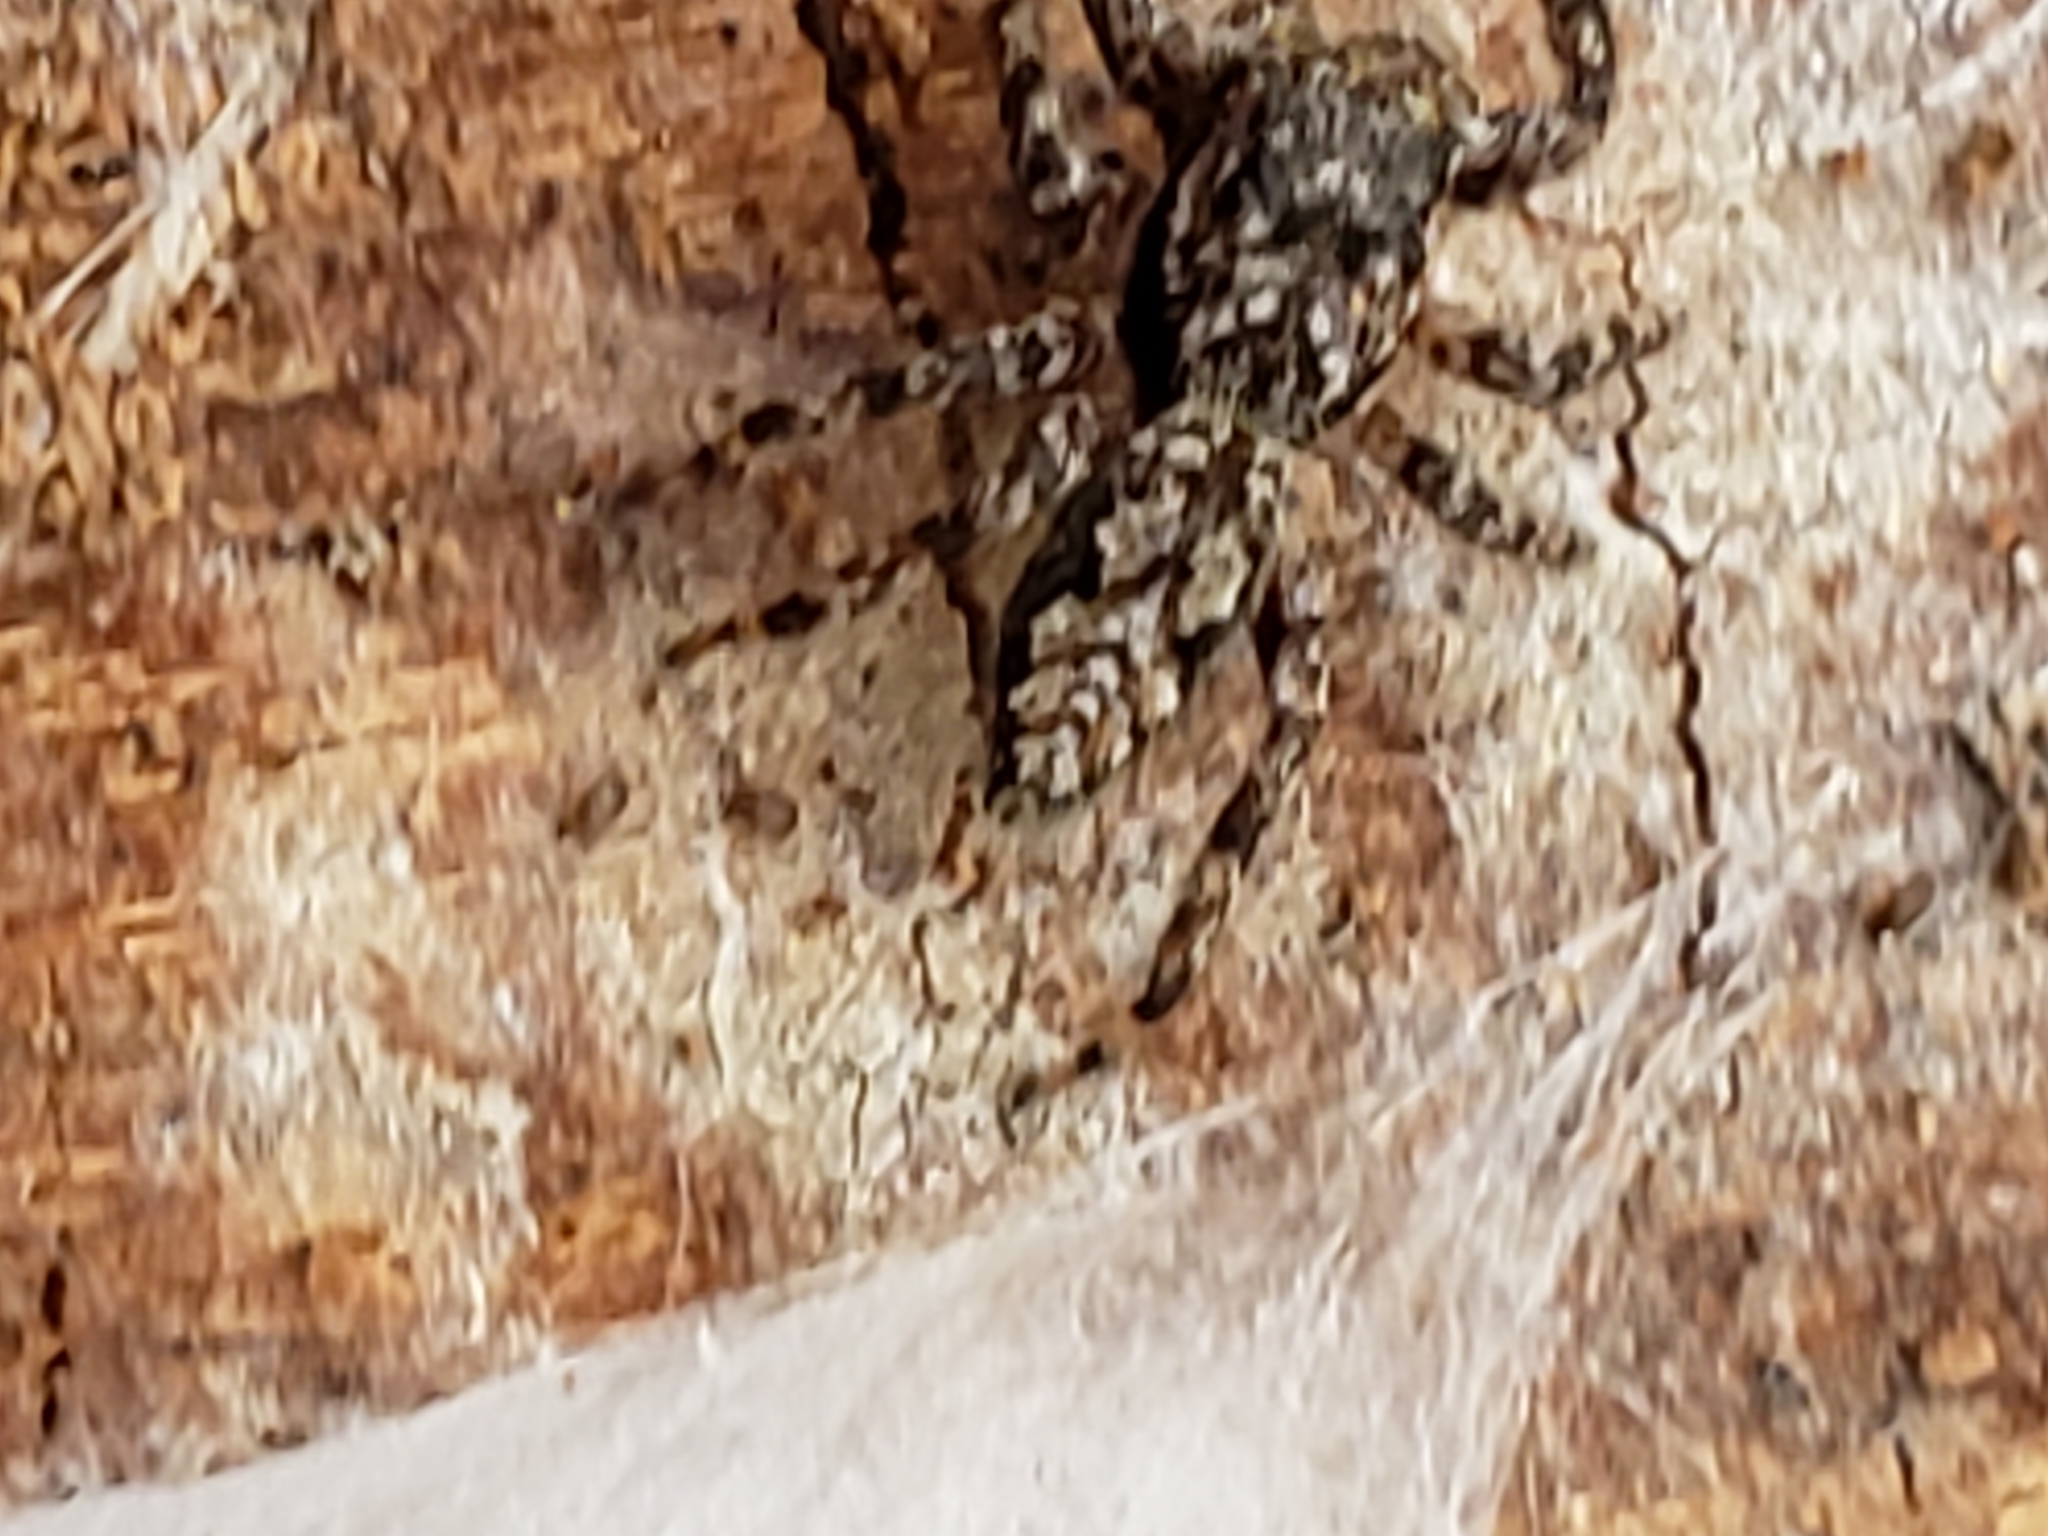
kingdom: Animalia
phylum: Arthropoda
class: Arachnida
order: Araneae
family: Salticidae
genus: Platycryptus
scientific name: Platycryptus undatus
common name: Tan jumping spider
